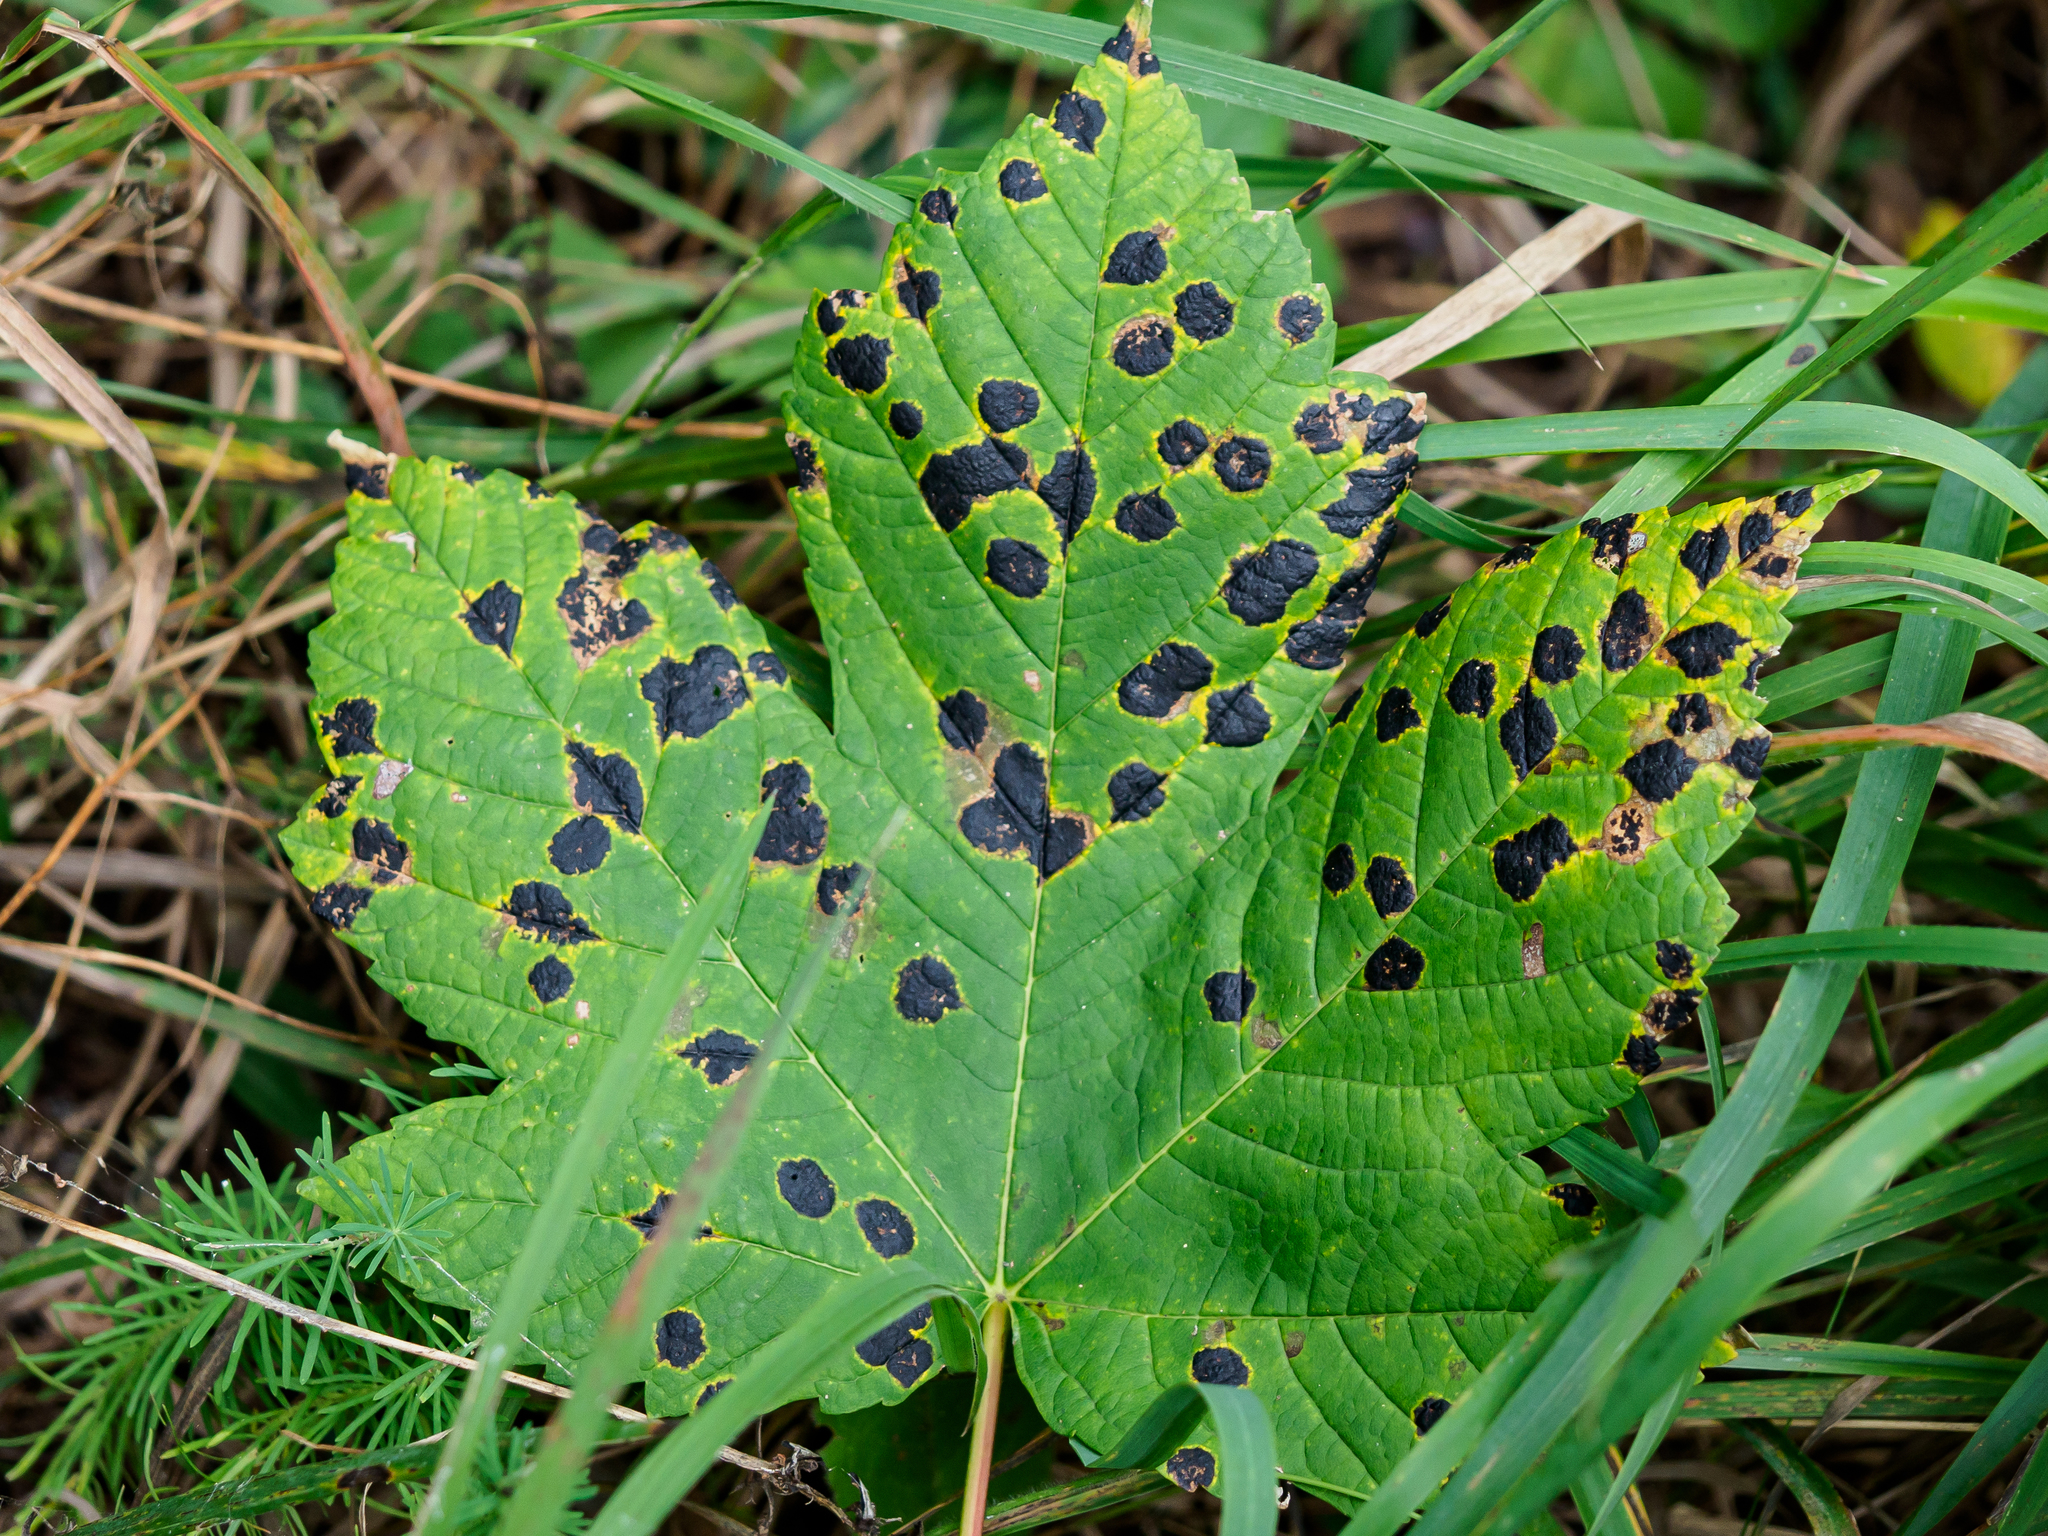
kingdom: Fungi
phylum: Ascomycota
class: Leotiomycetes
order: Rhytismatales
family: Rhytismataceae
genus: Rhytisma
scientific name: Rhytisma acerinum
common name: European tar spot
